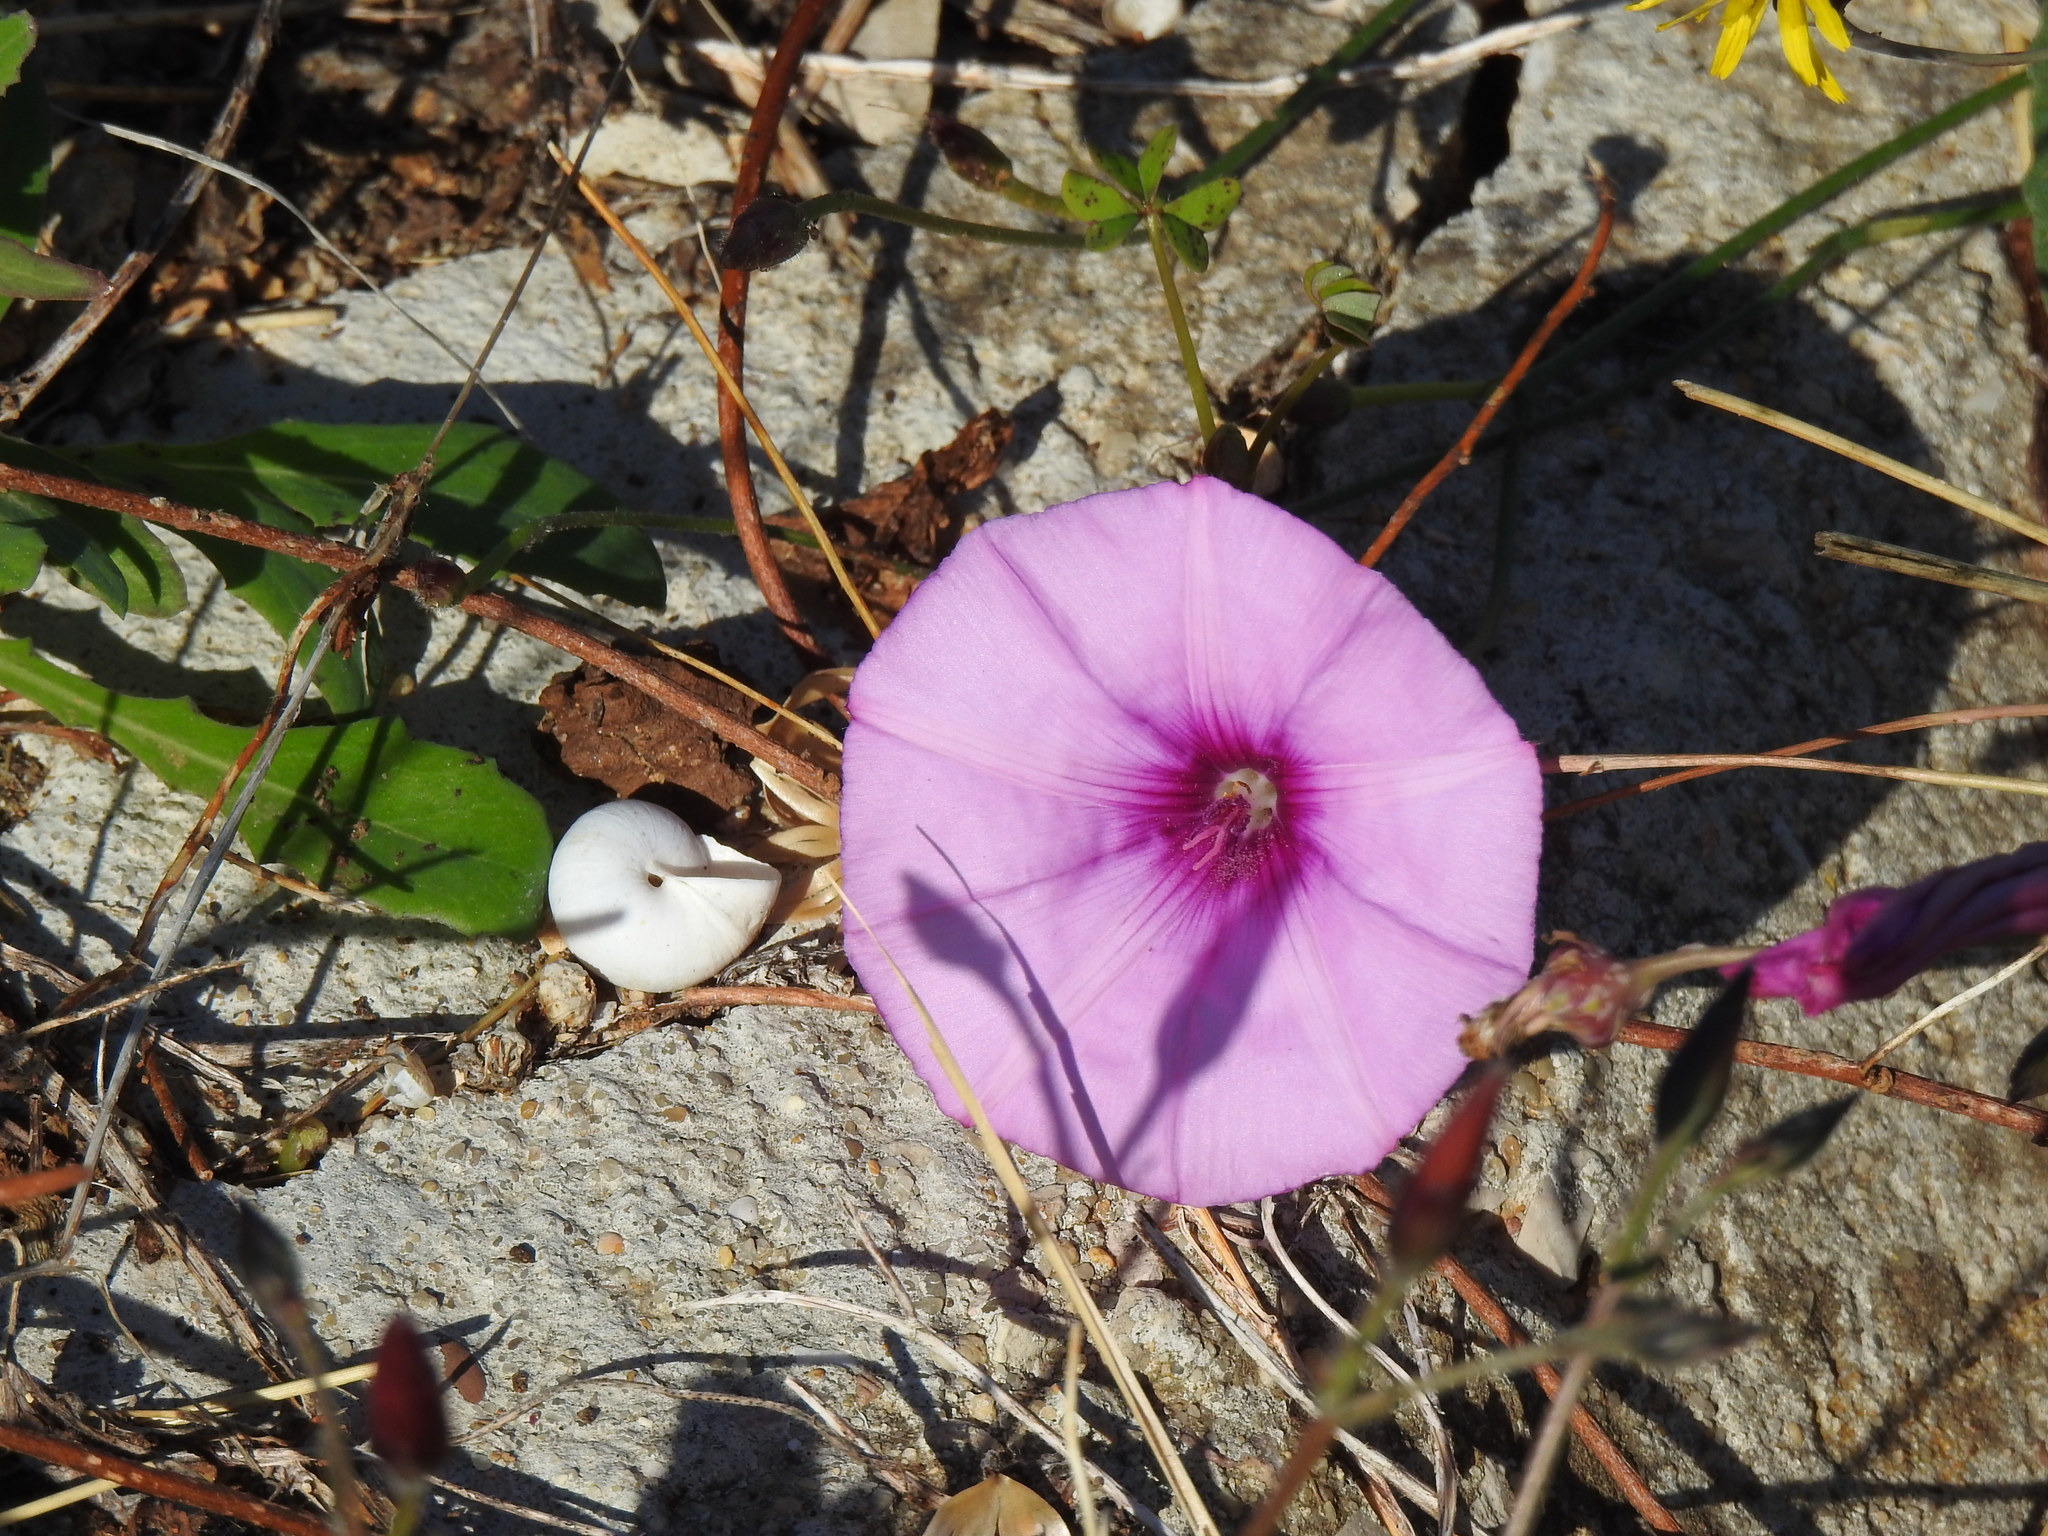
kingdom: Plantae
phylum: Tracheophyta
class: Magnoliopsida
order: Solanales
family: Convolvulaceae
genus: Convolvulus
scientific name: Convolvulus althaeoides
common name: Mallow bindweed
